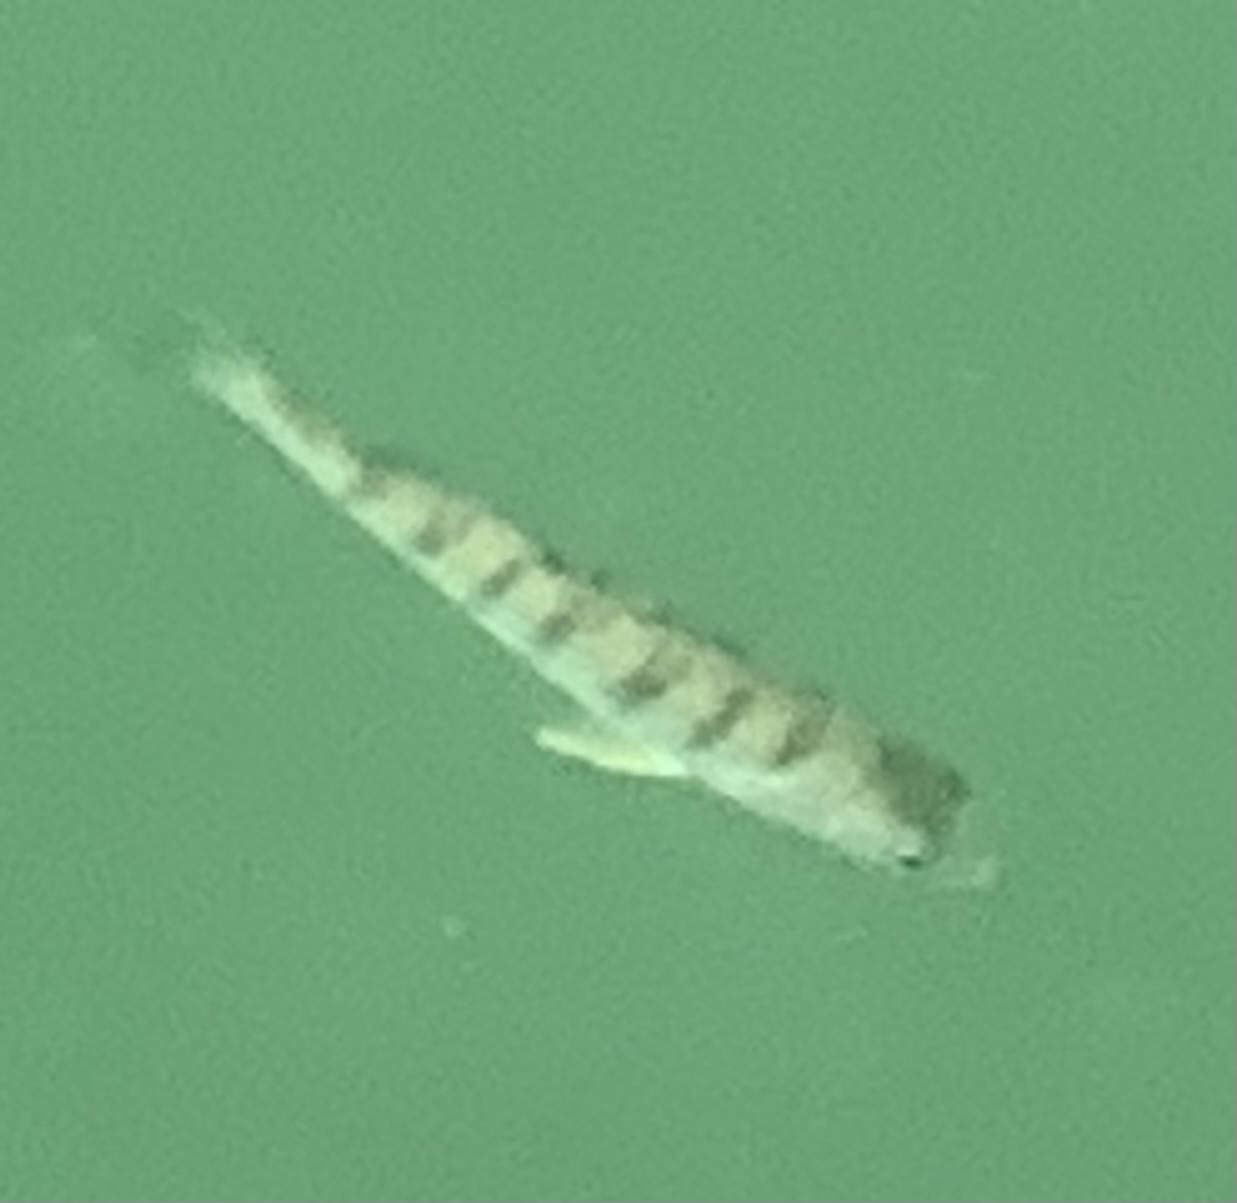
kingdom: Animalia
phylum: Chordata
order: Perciformes
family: Percidae
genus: Perca
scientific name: Perca fluviatilis
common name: Perch
